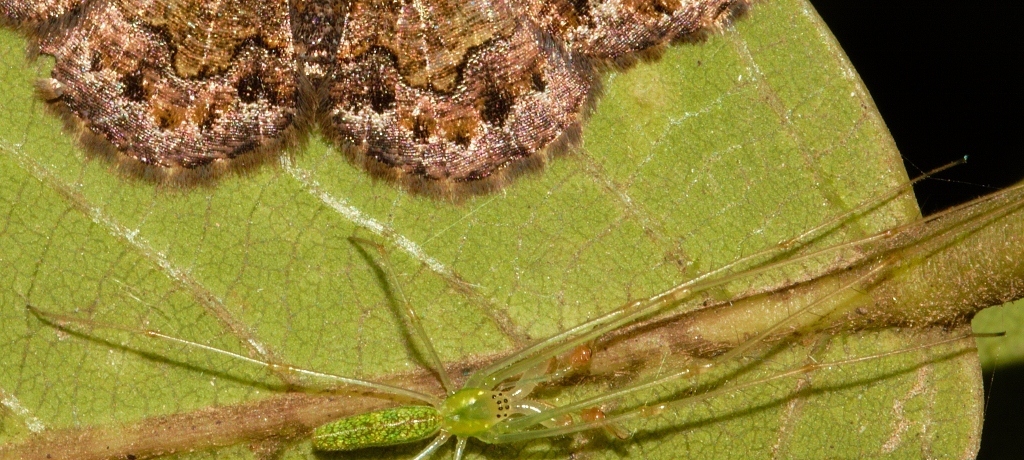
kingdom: Animalia
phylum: Arthropoda
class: Arachnida
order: Araneae
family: Tetragnathidae
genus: Tetragnatha
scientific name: Tetragnatha subsquamata
